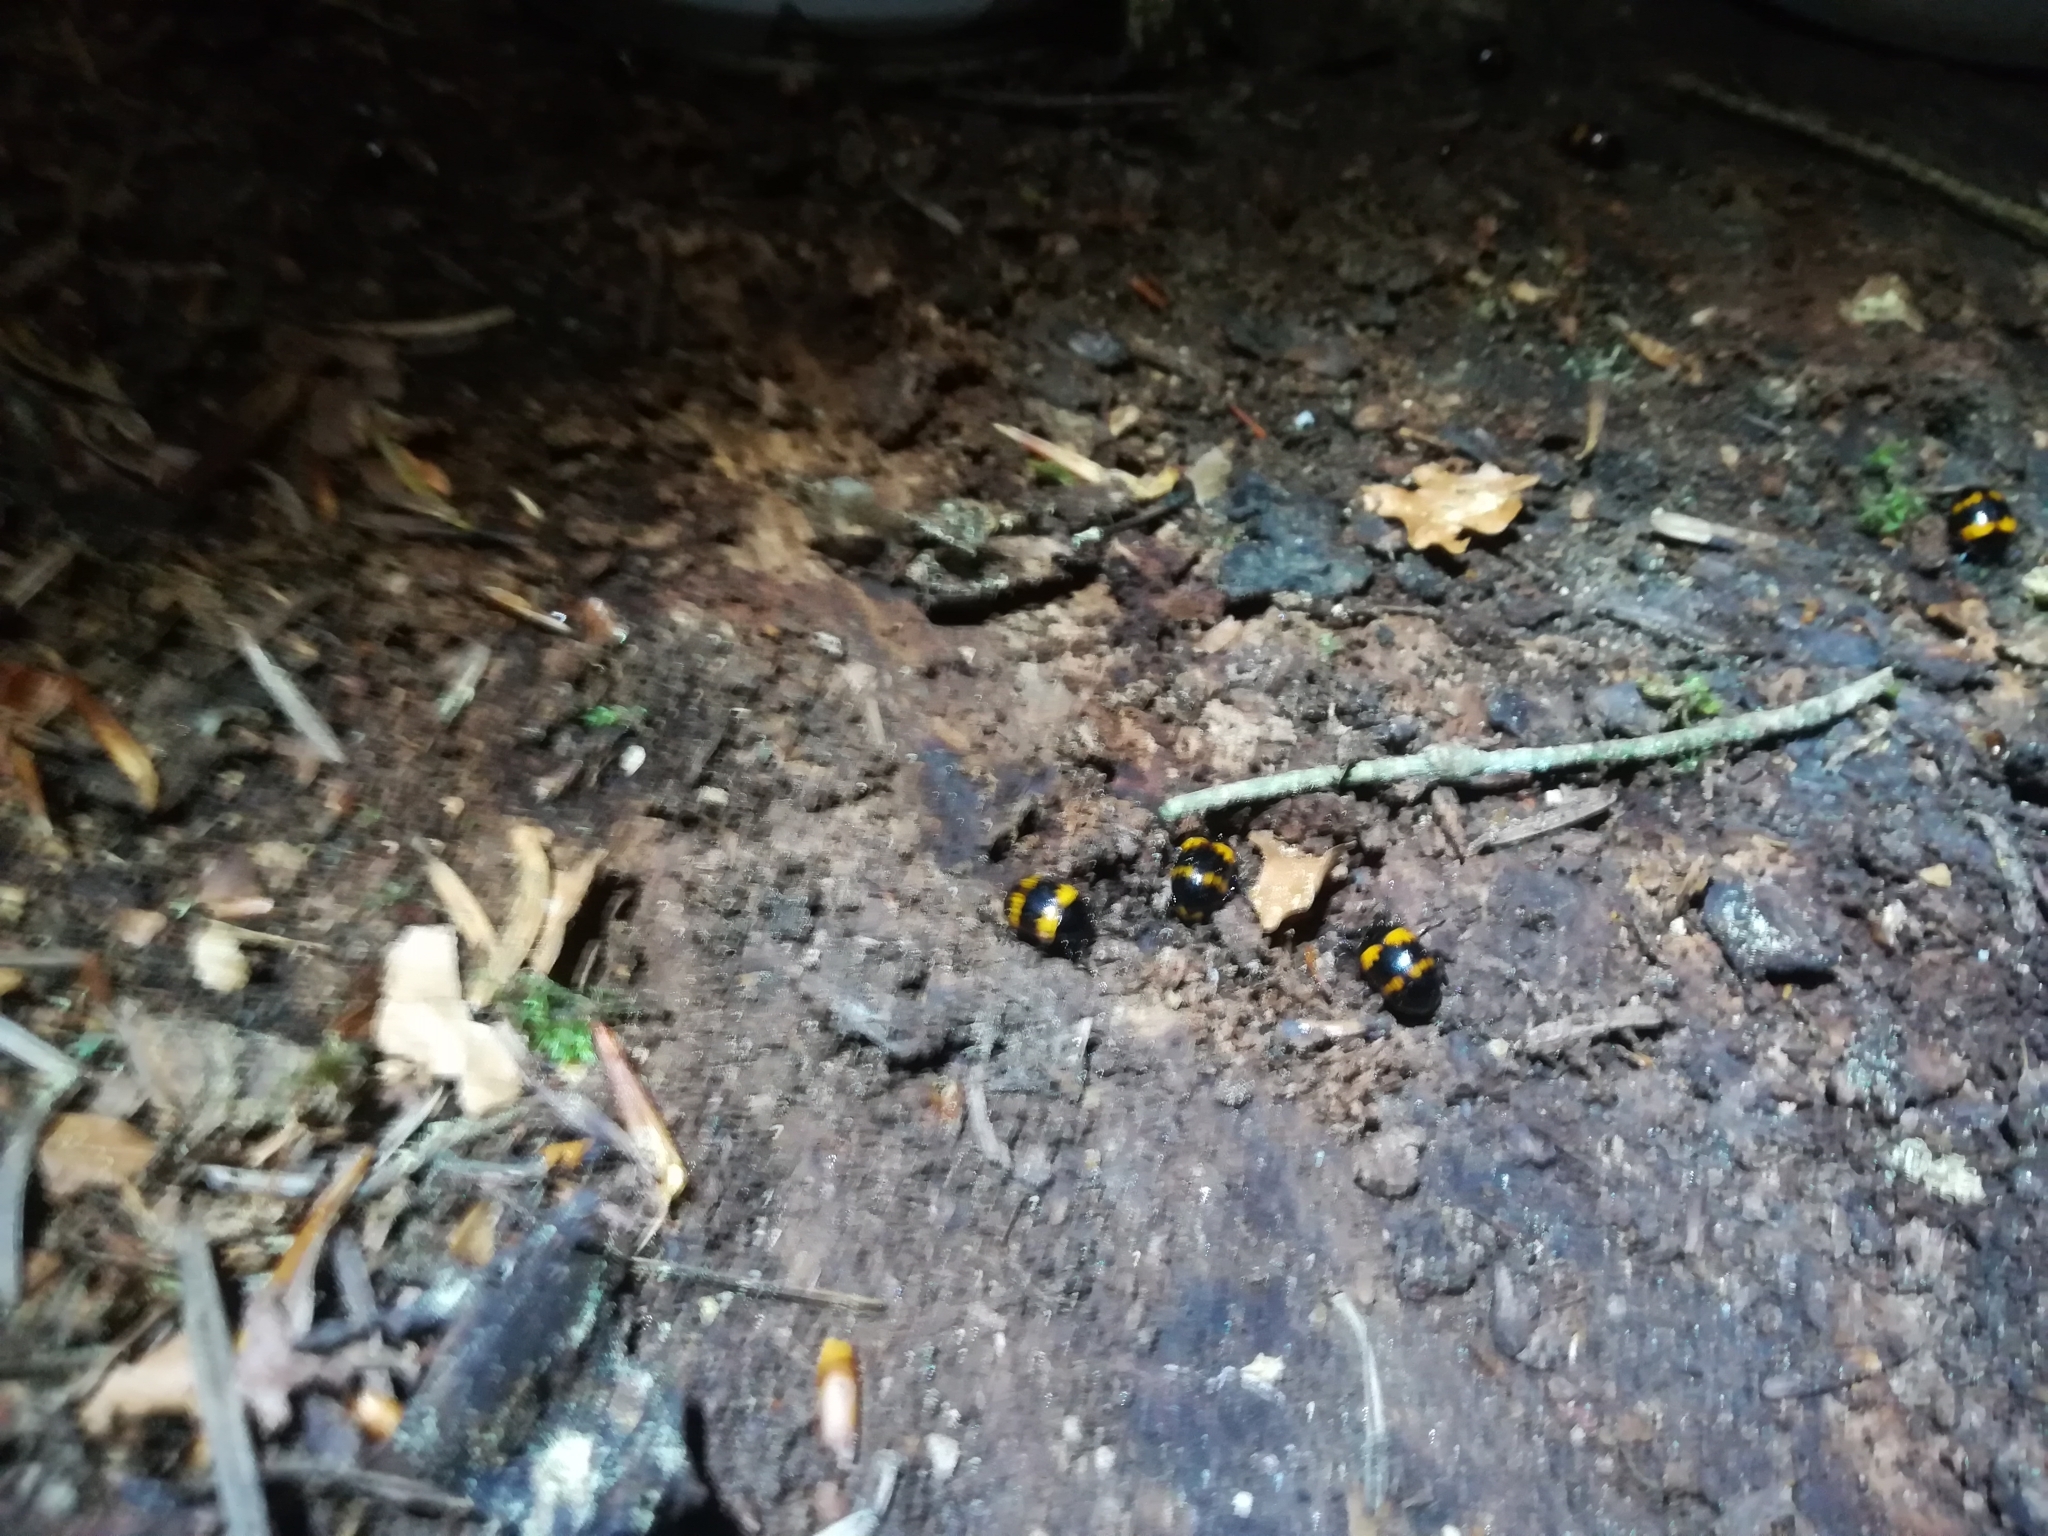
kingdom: Animalia
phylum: Arthropoda
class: Insecta
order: Coleoptera
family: Tenebrionidae
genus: Diaperis
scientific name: Diaperis boleti
